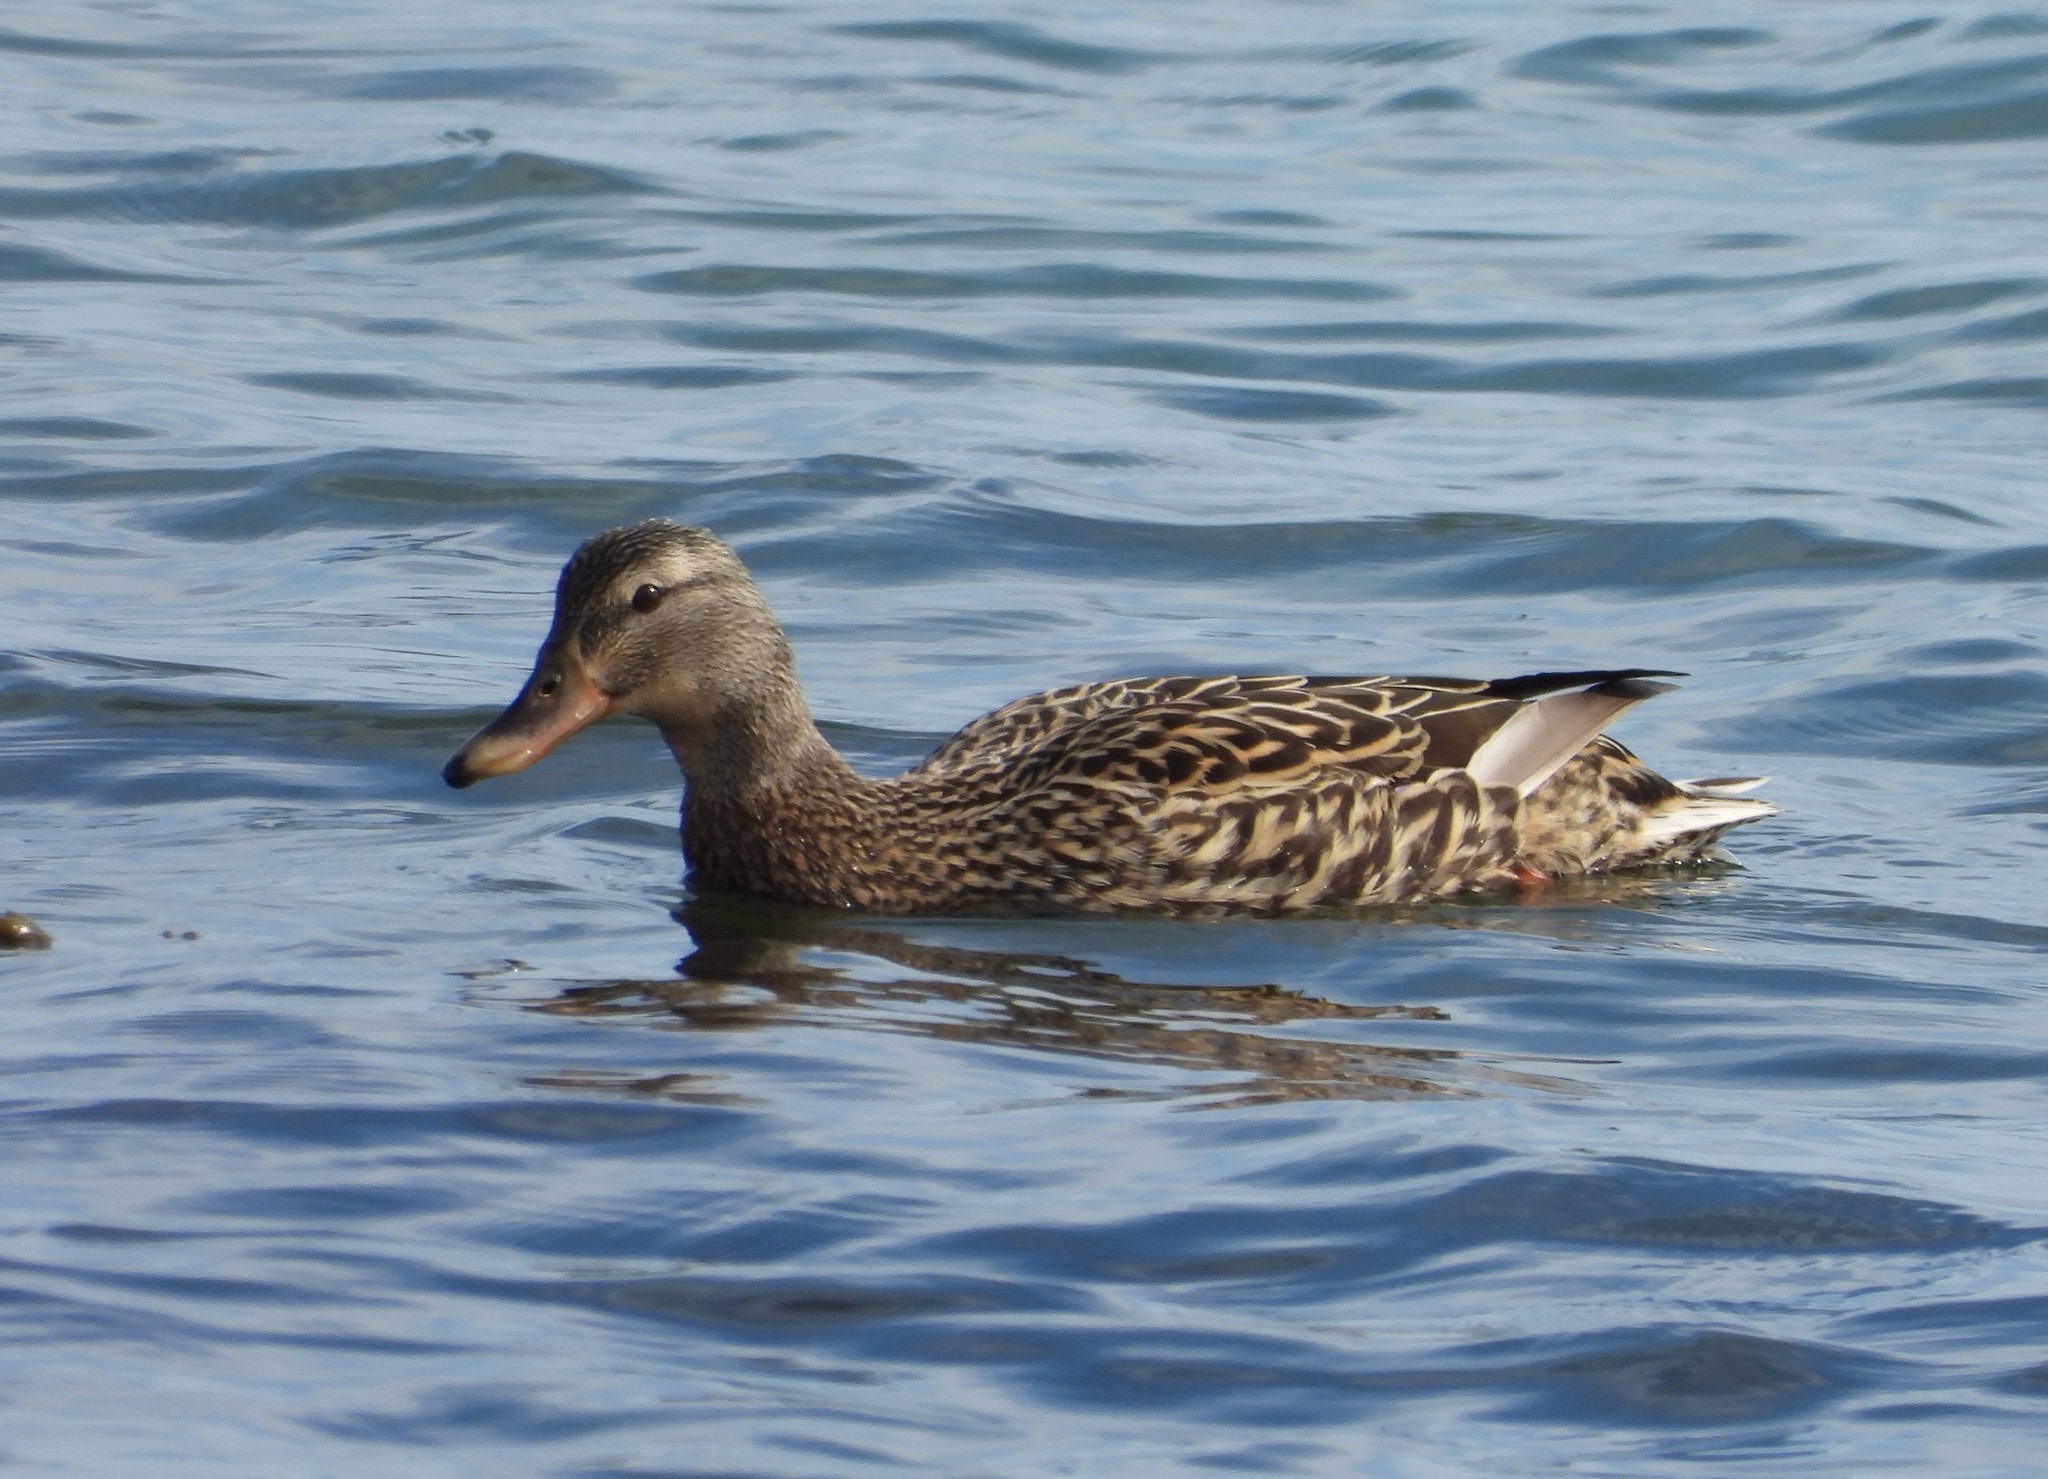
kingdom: Animalia
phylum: Chordata
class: Aves
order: Anseriformes
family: Anatidae
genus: Anas
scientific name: Anas platyrhynchos
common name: Mallard
